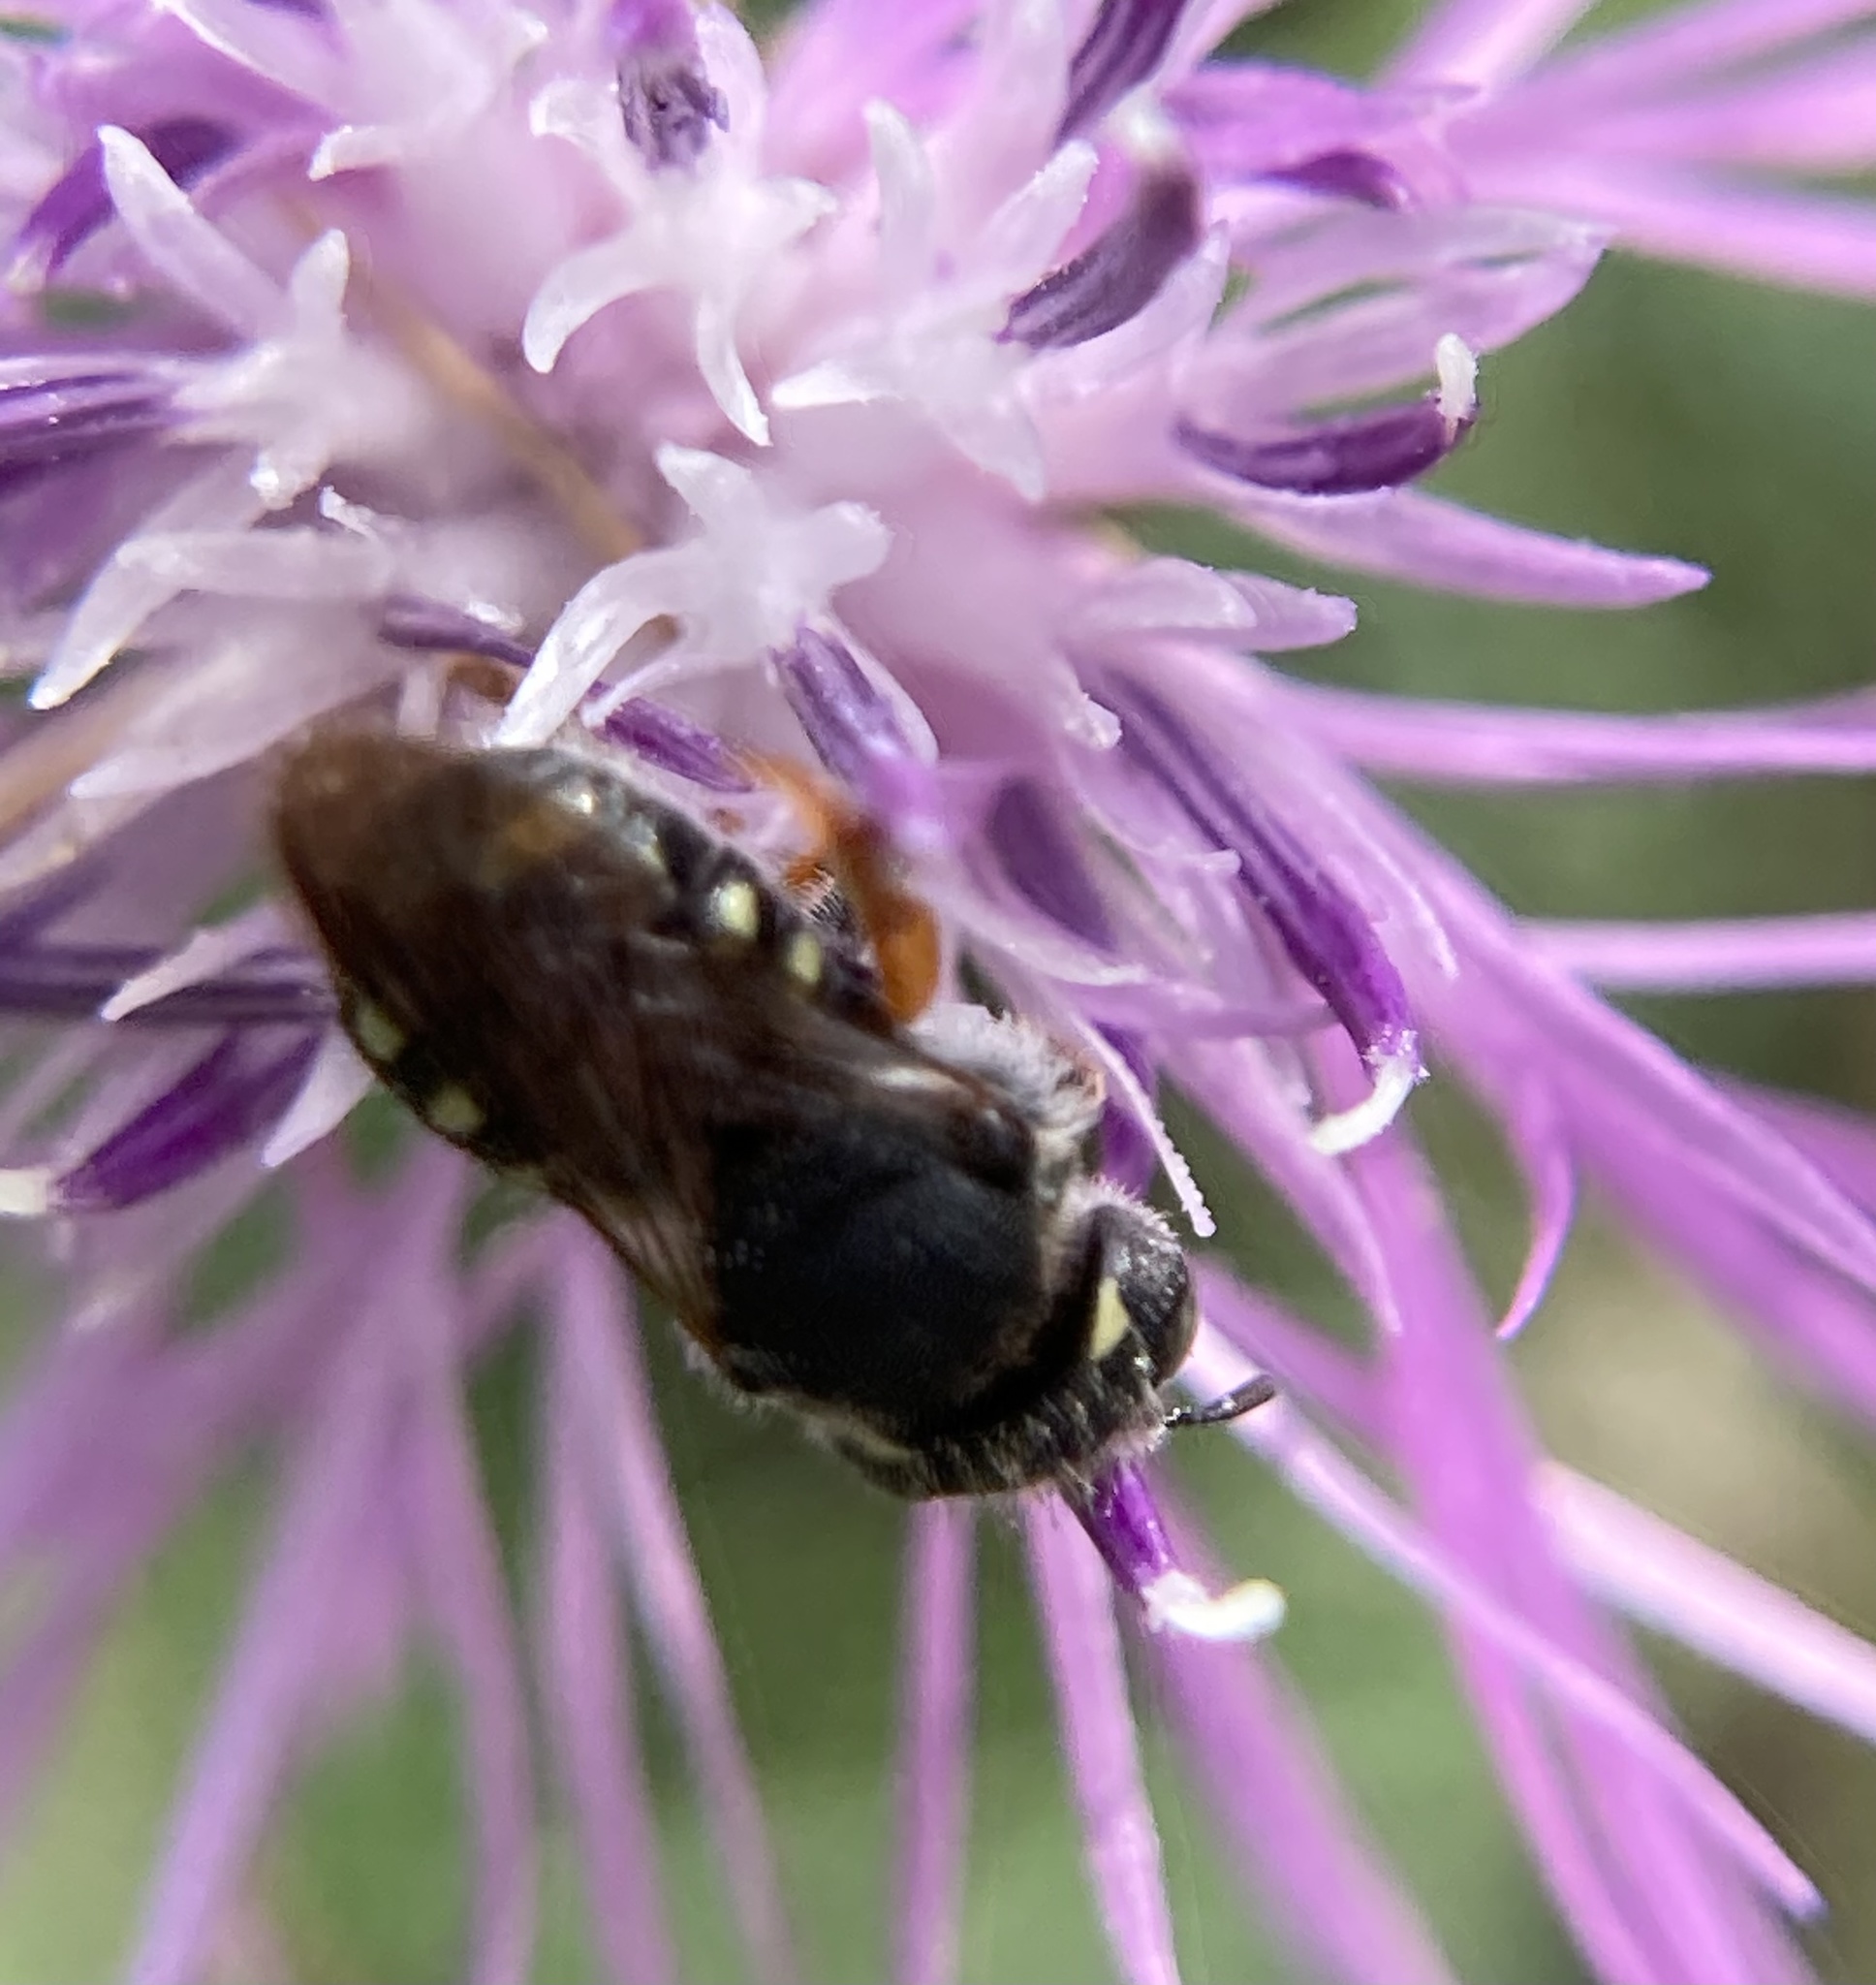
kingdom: Animalia
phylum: Arthropoda
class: Insecta
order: Hymenoptera
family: Megachilidae
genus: Pseudoanthidium
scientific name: Pseudoanthidium nanum
